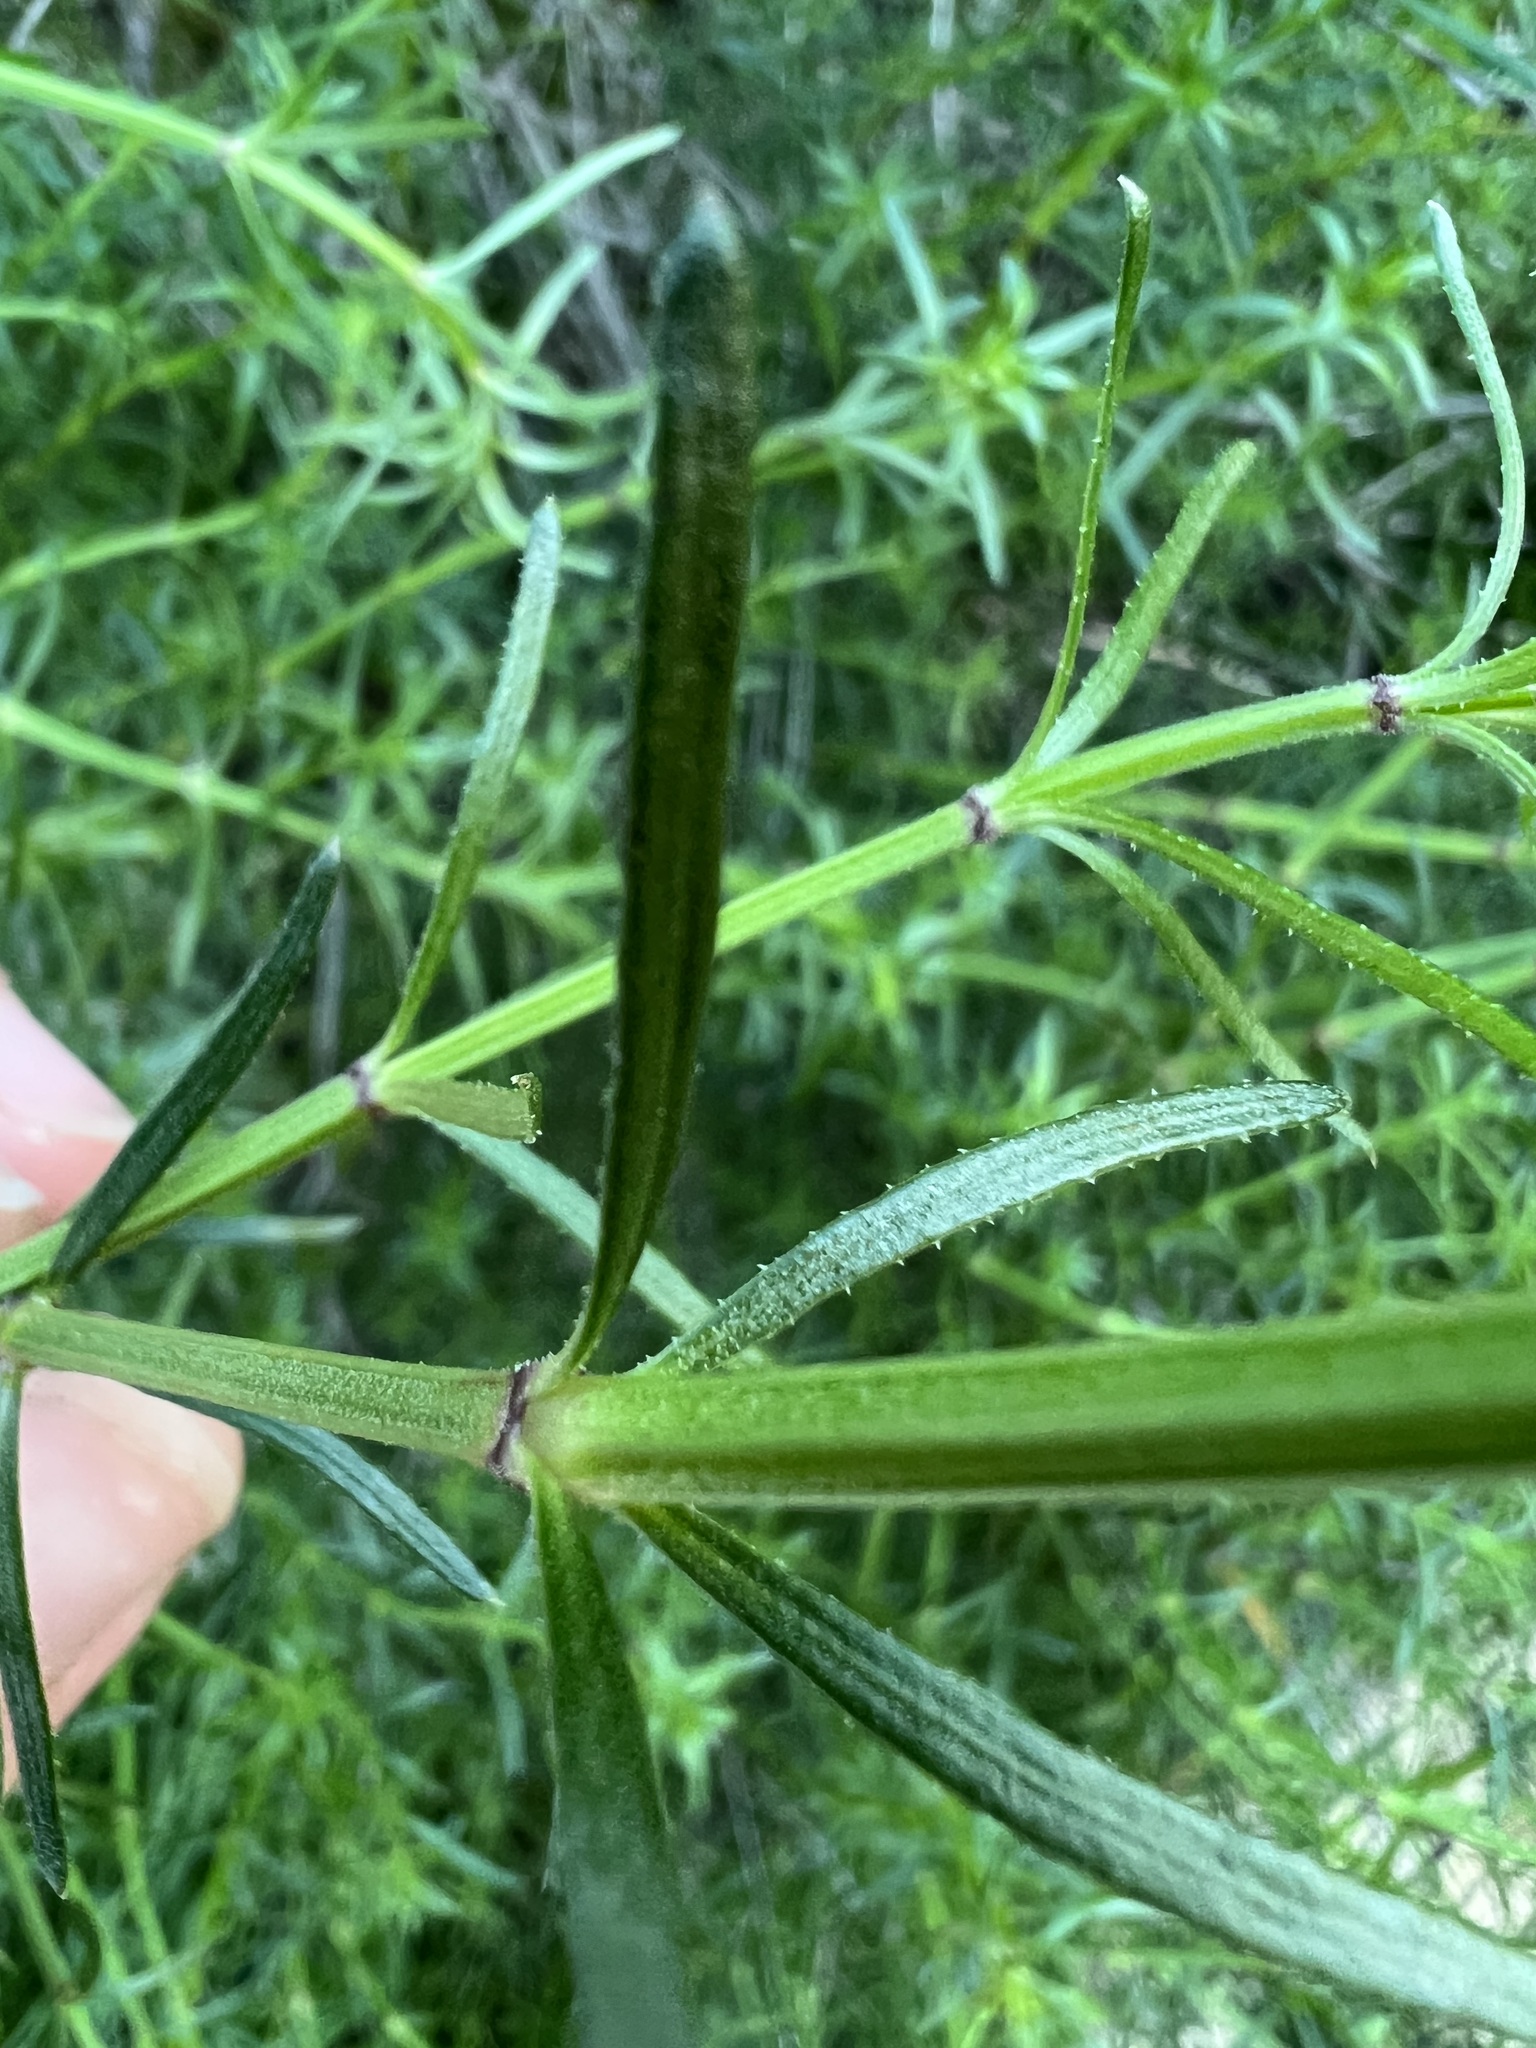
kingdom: Plantae
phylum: Tracheophyta
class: Magnoliopsida
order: Gentianales
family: Rubiaceae
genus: Galium
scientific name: Galium angustifolium
